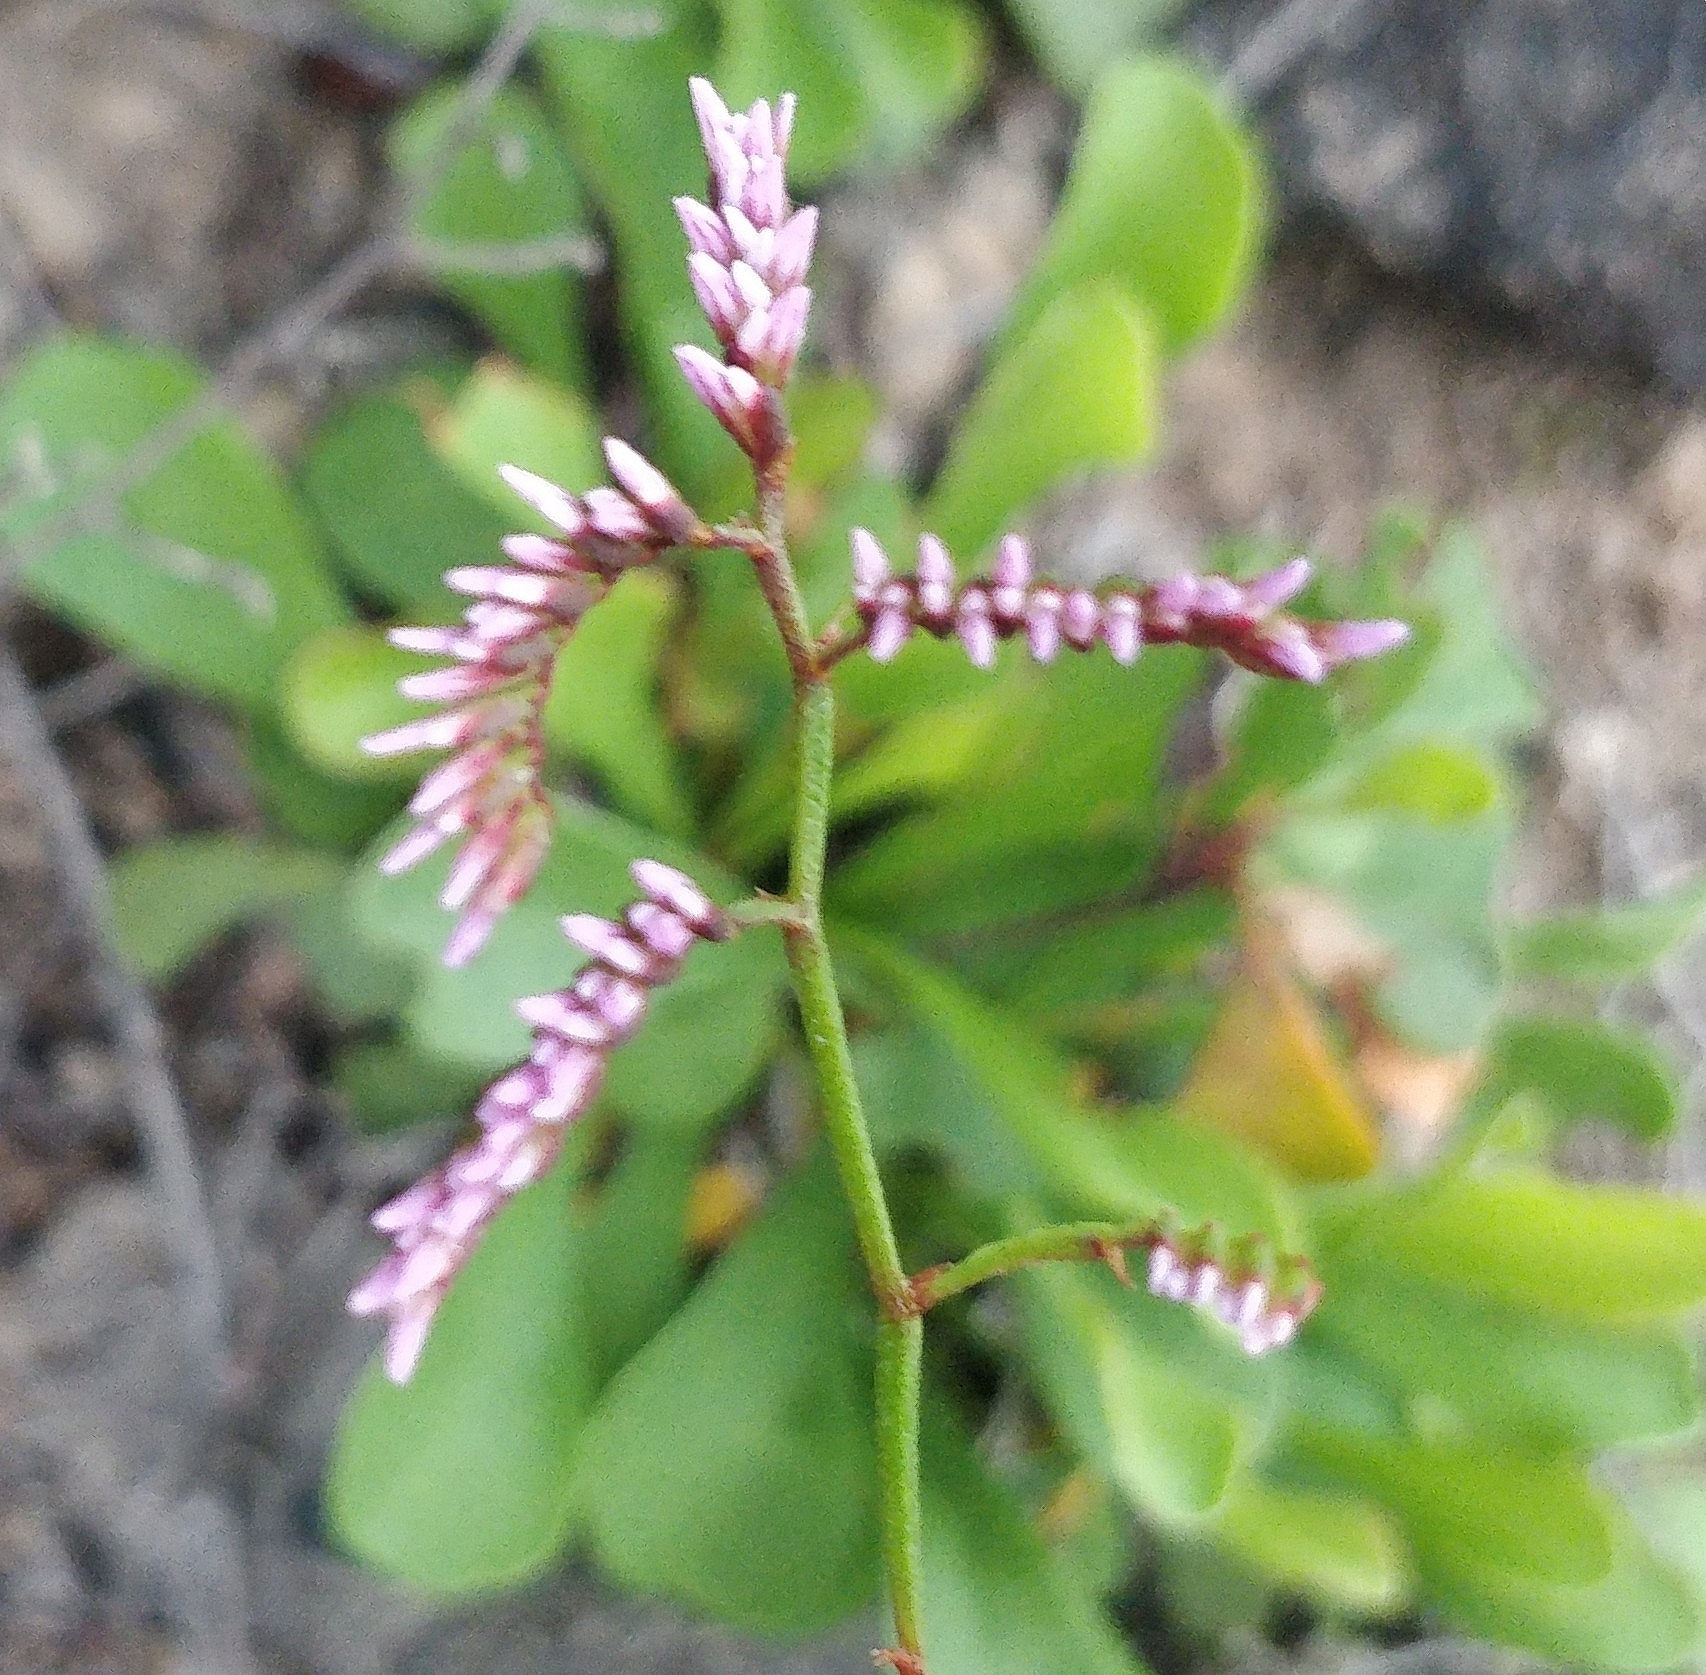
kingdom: Plantae
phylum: Tracheophyta
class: Magnoliopsida
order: Caryophyllales
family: Plumbaginaceae
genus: Limonium
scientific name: Limonium pectinatum
